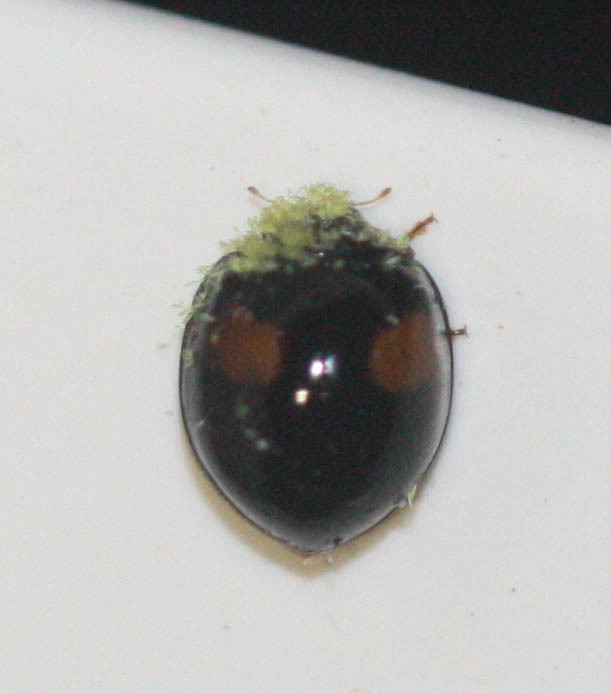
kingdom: Animalia
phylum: Arthropoda
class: Insecta
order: Coleoptera
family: Coccinellidae
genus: Olla
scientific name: Olla v-nigrum
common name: Ashy gray lady beetle
